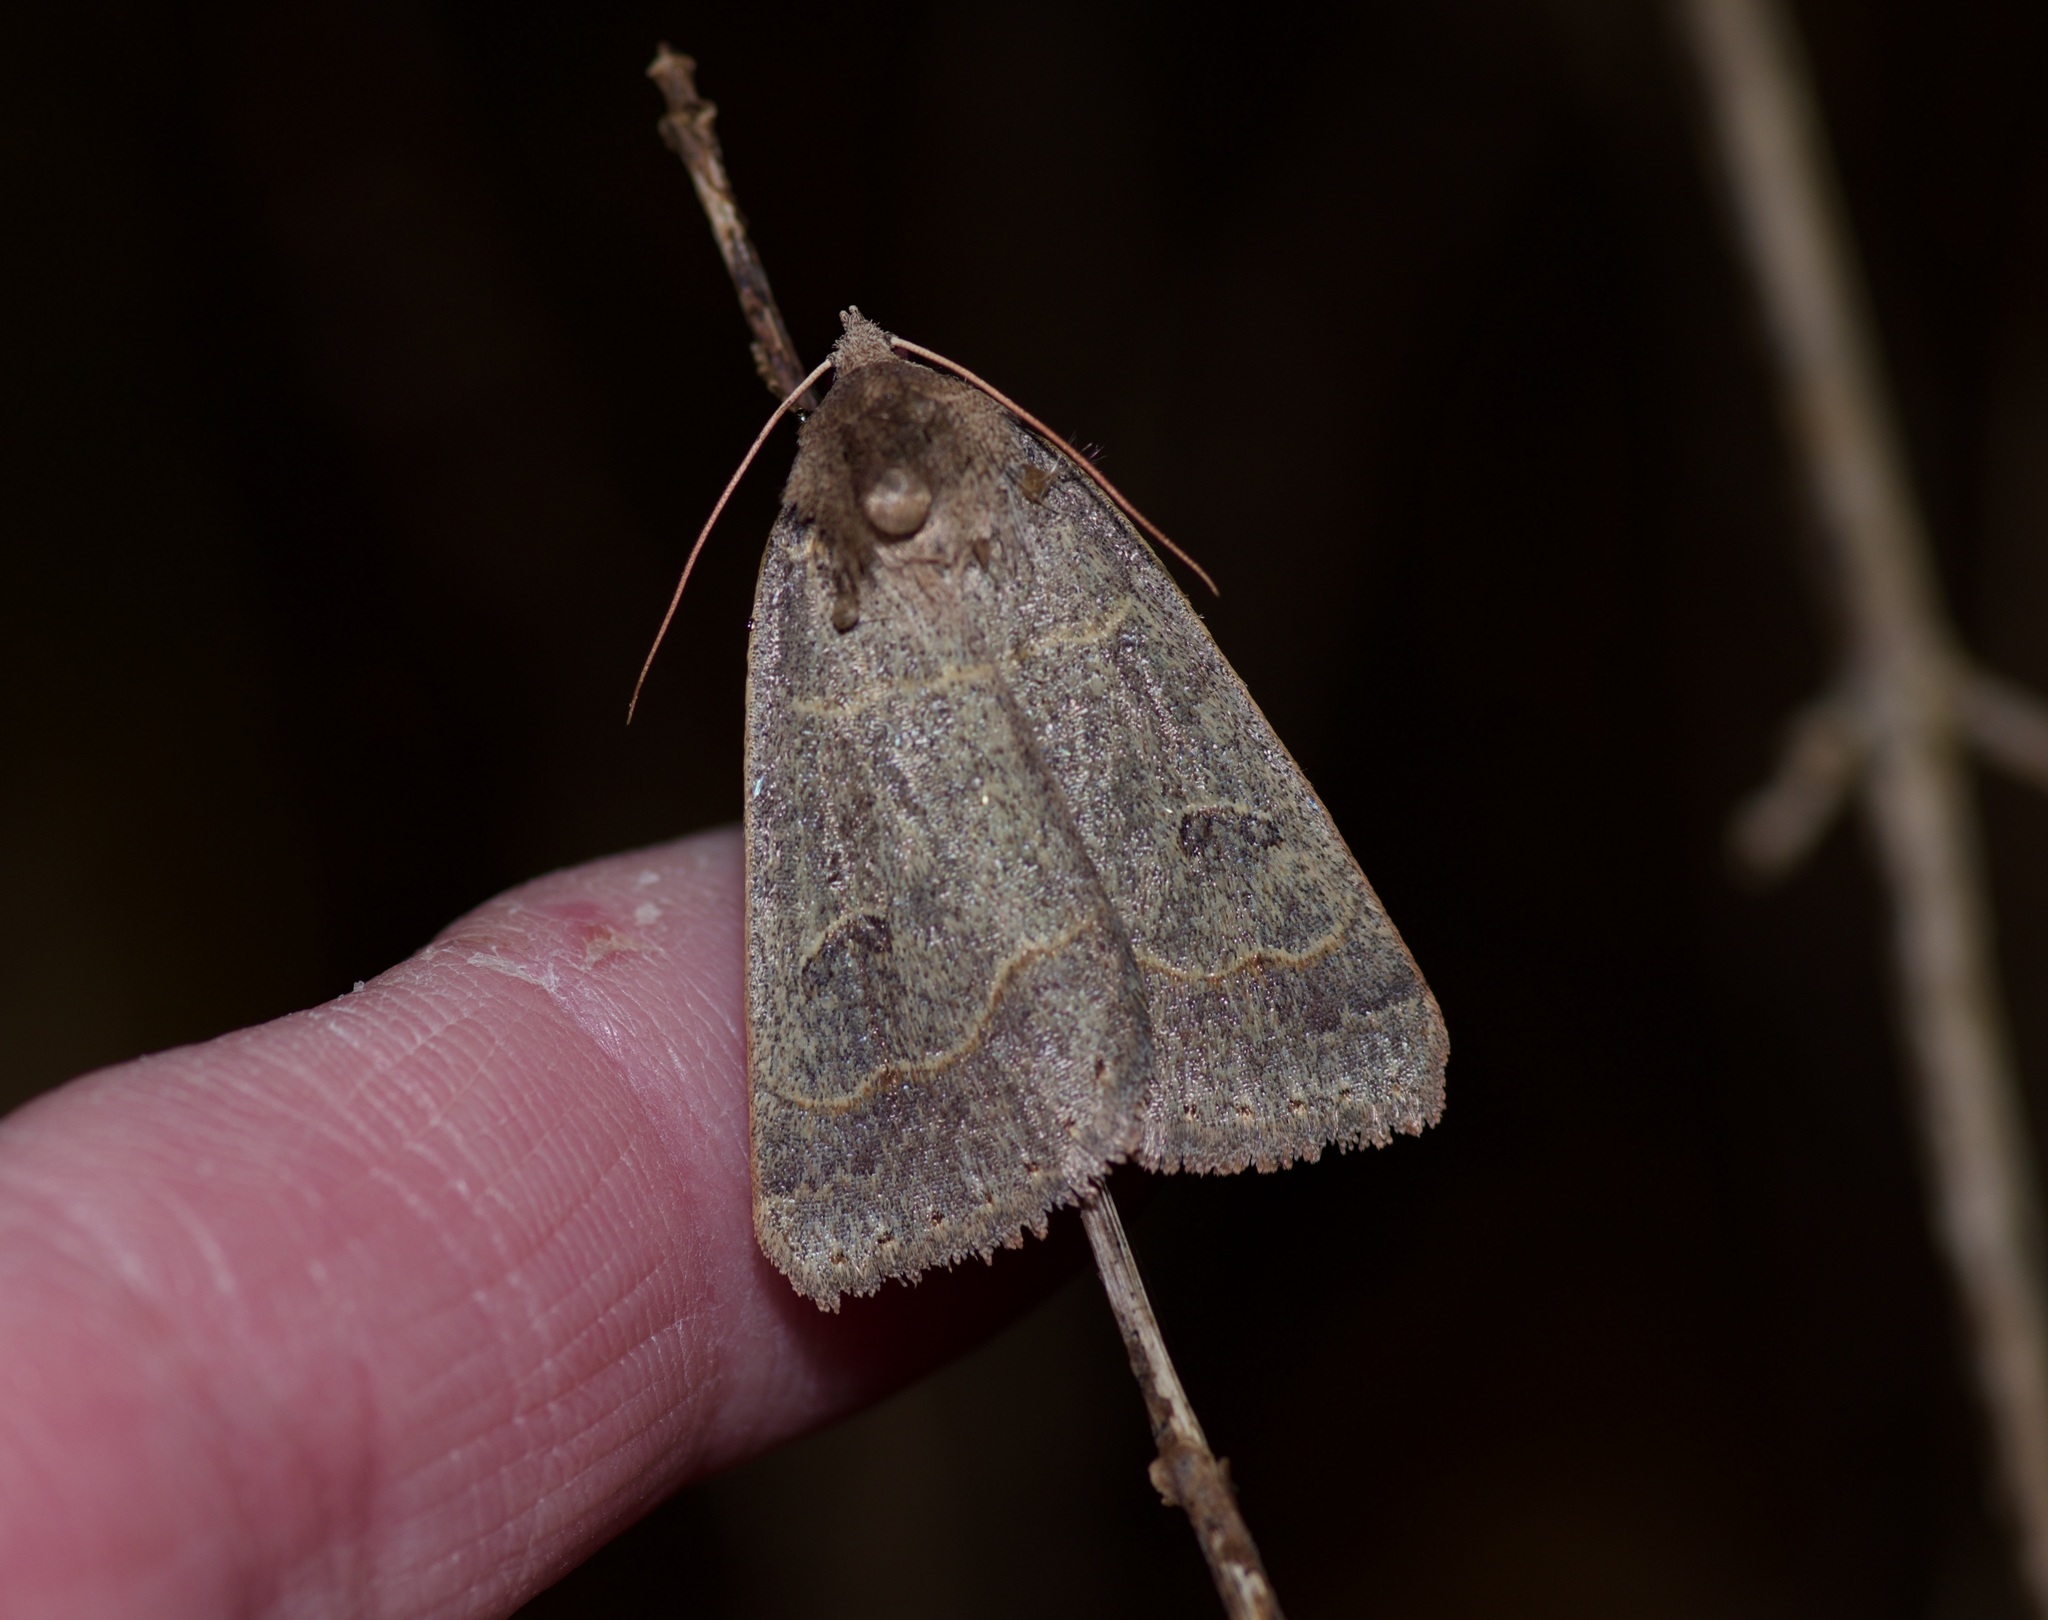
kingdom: Animalia
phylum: Arthropoda
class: Insecta
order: Lepidoptera
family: Erebidae
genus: Phoberia
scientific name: Phoberia atomaris
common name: Common oak moth
